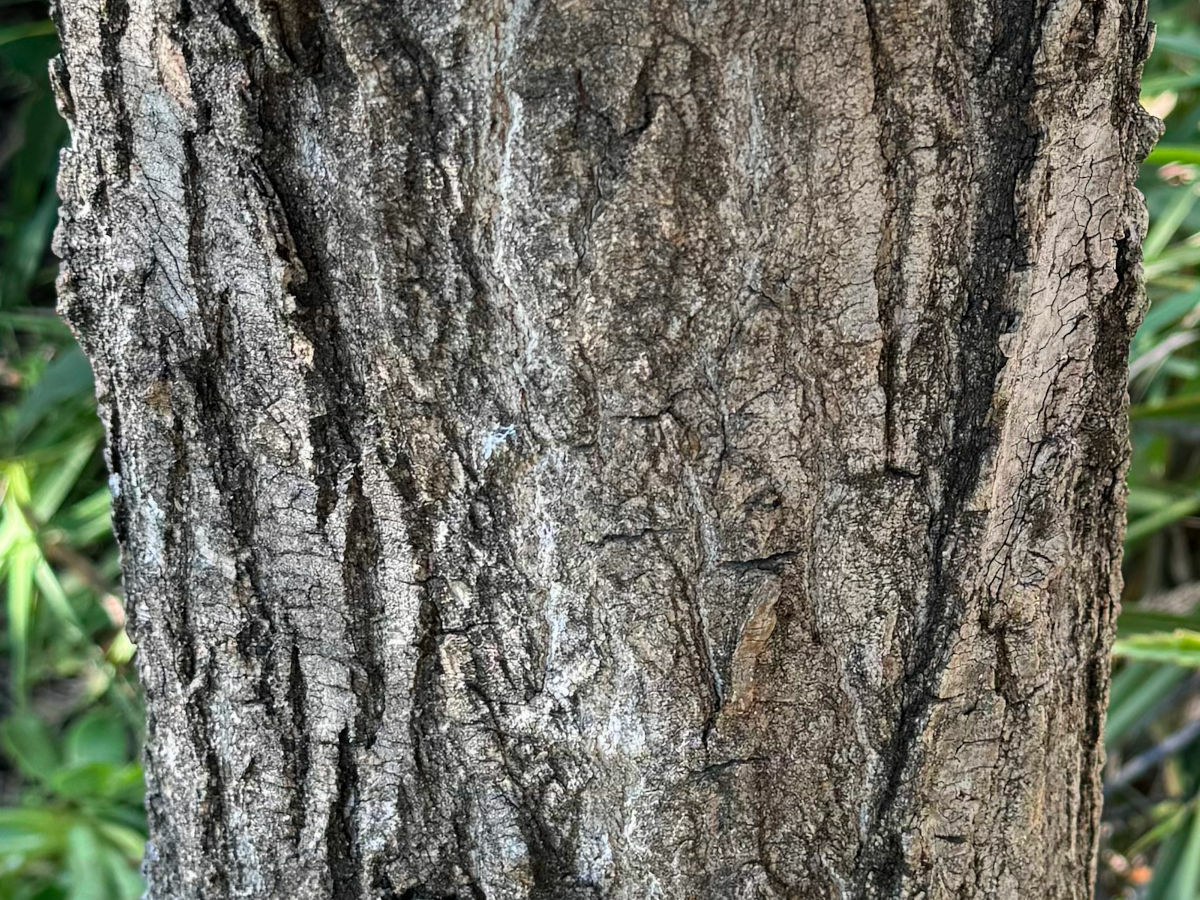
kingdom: Plantae
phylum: Tracheophyta
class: Magnoliopsida
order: Fagales
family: Fagaceae
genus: Quercus
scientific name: Quercus agrifolia
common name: California live oak
